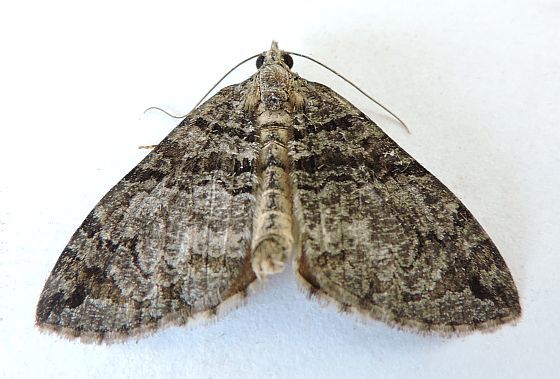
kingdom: Animalia
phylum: Arthropoda
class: Insecta
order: Lepidoptera
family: Geometridae
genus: Hydriomena
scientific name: Hydriomena barnesata
